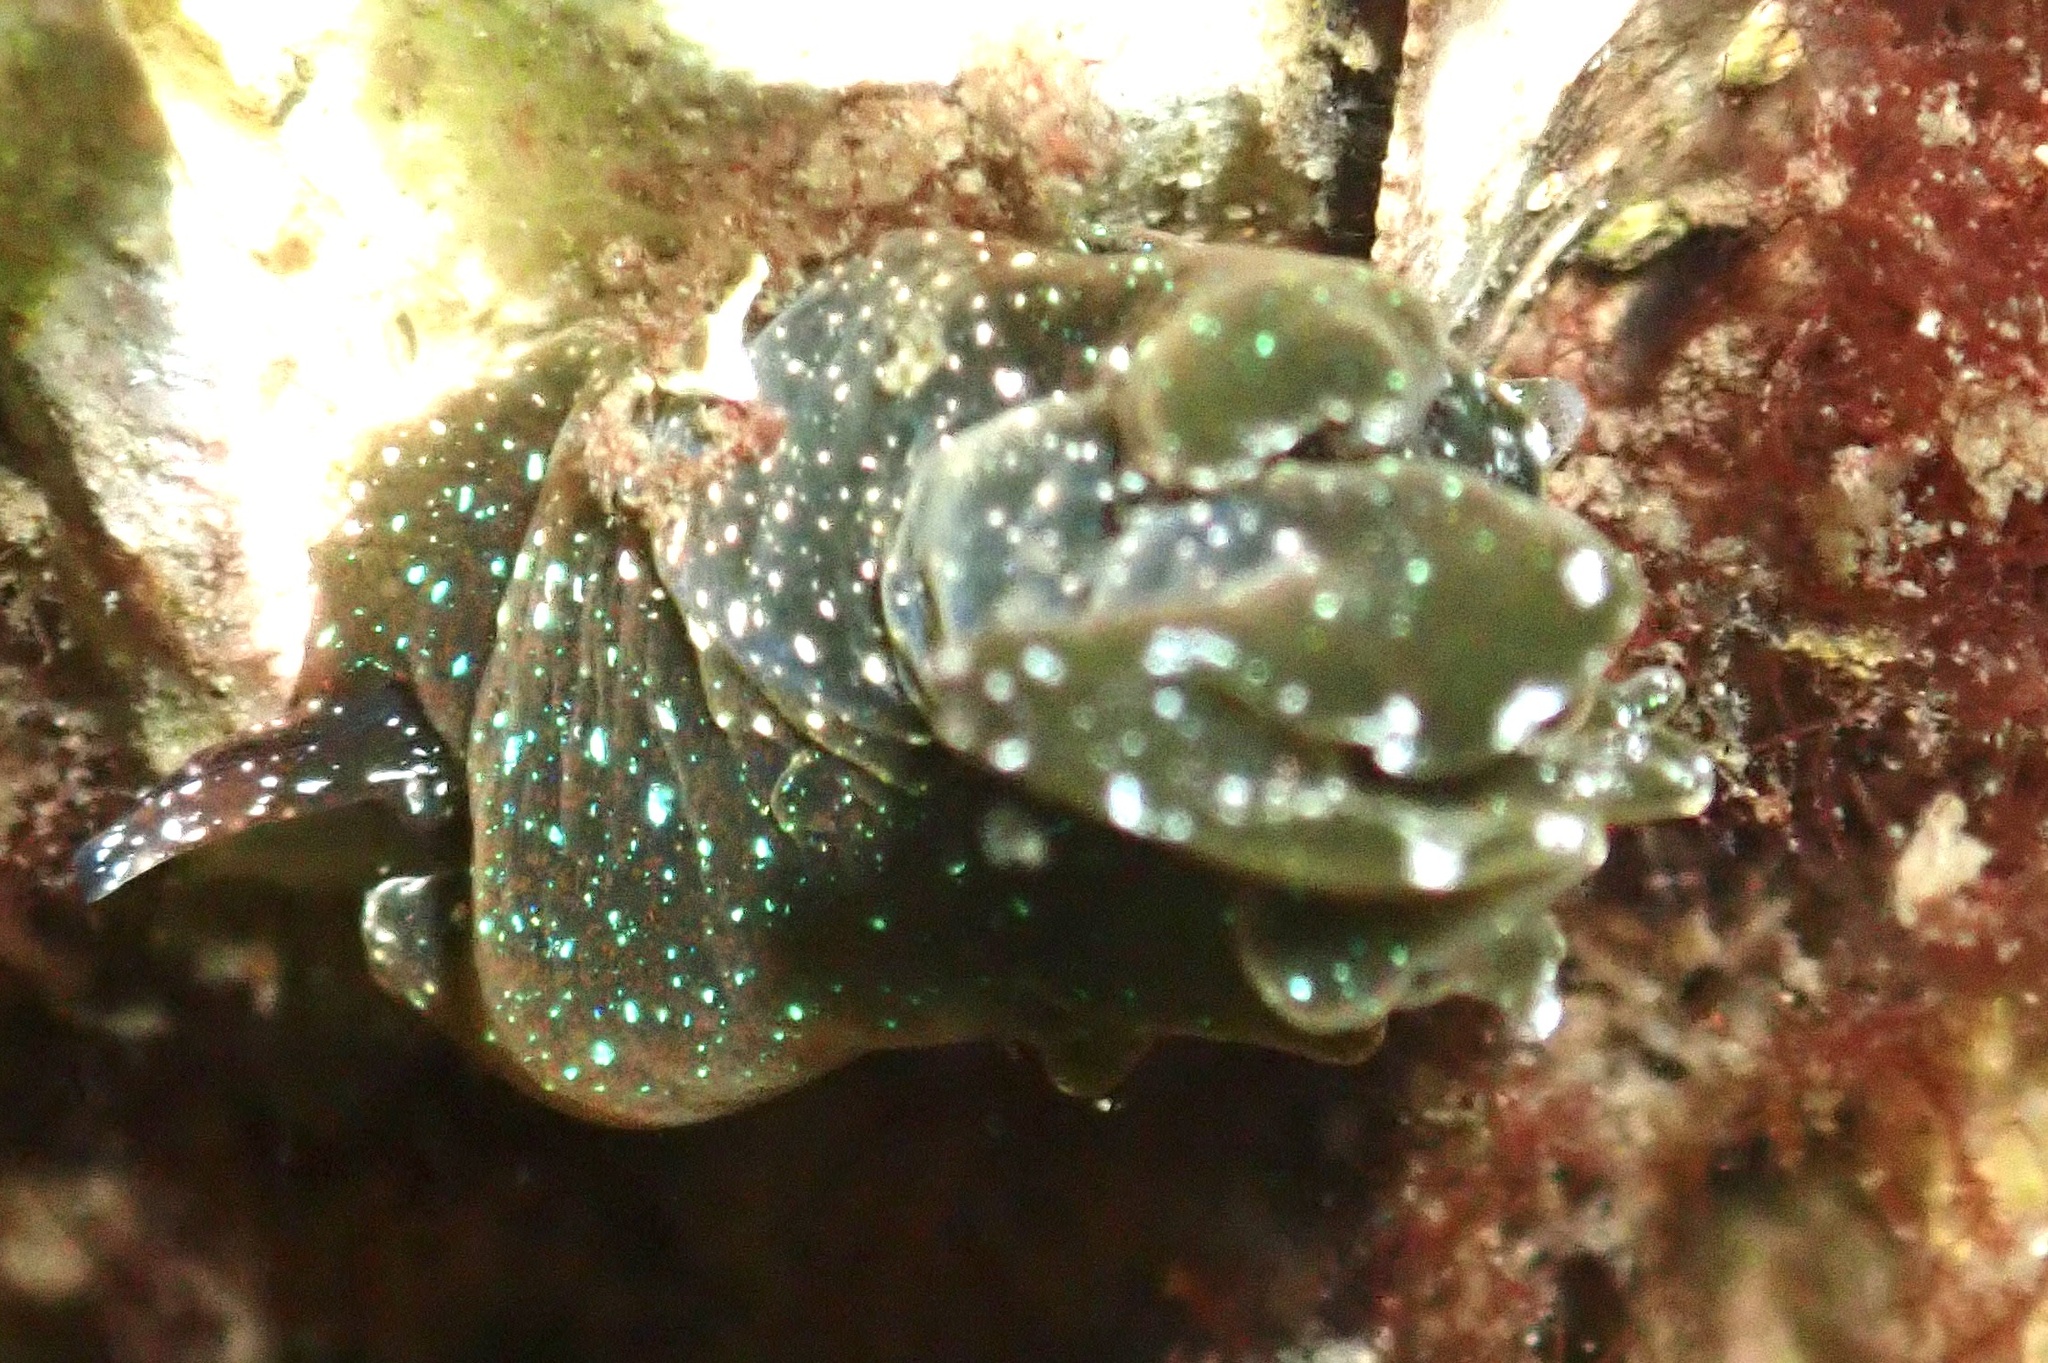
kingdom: Animalia
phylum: Mollusca
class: Gastropoda
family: Plakobranchidae
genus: Elysia
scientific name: Elysia viridis
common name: Green elysia
